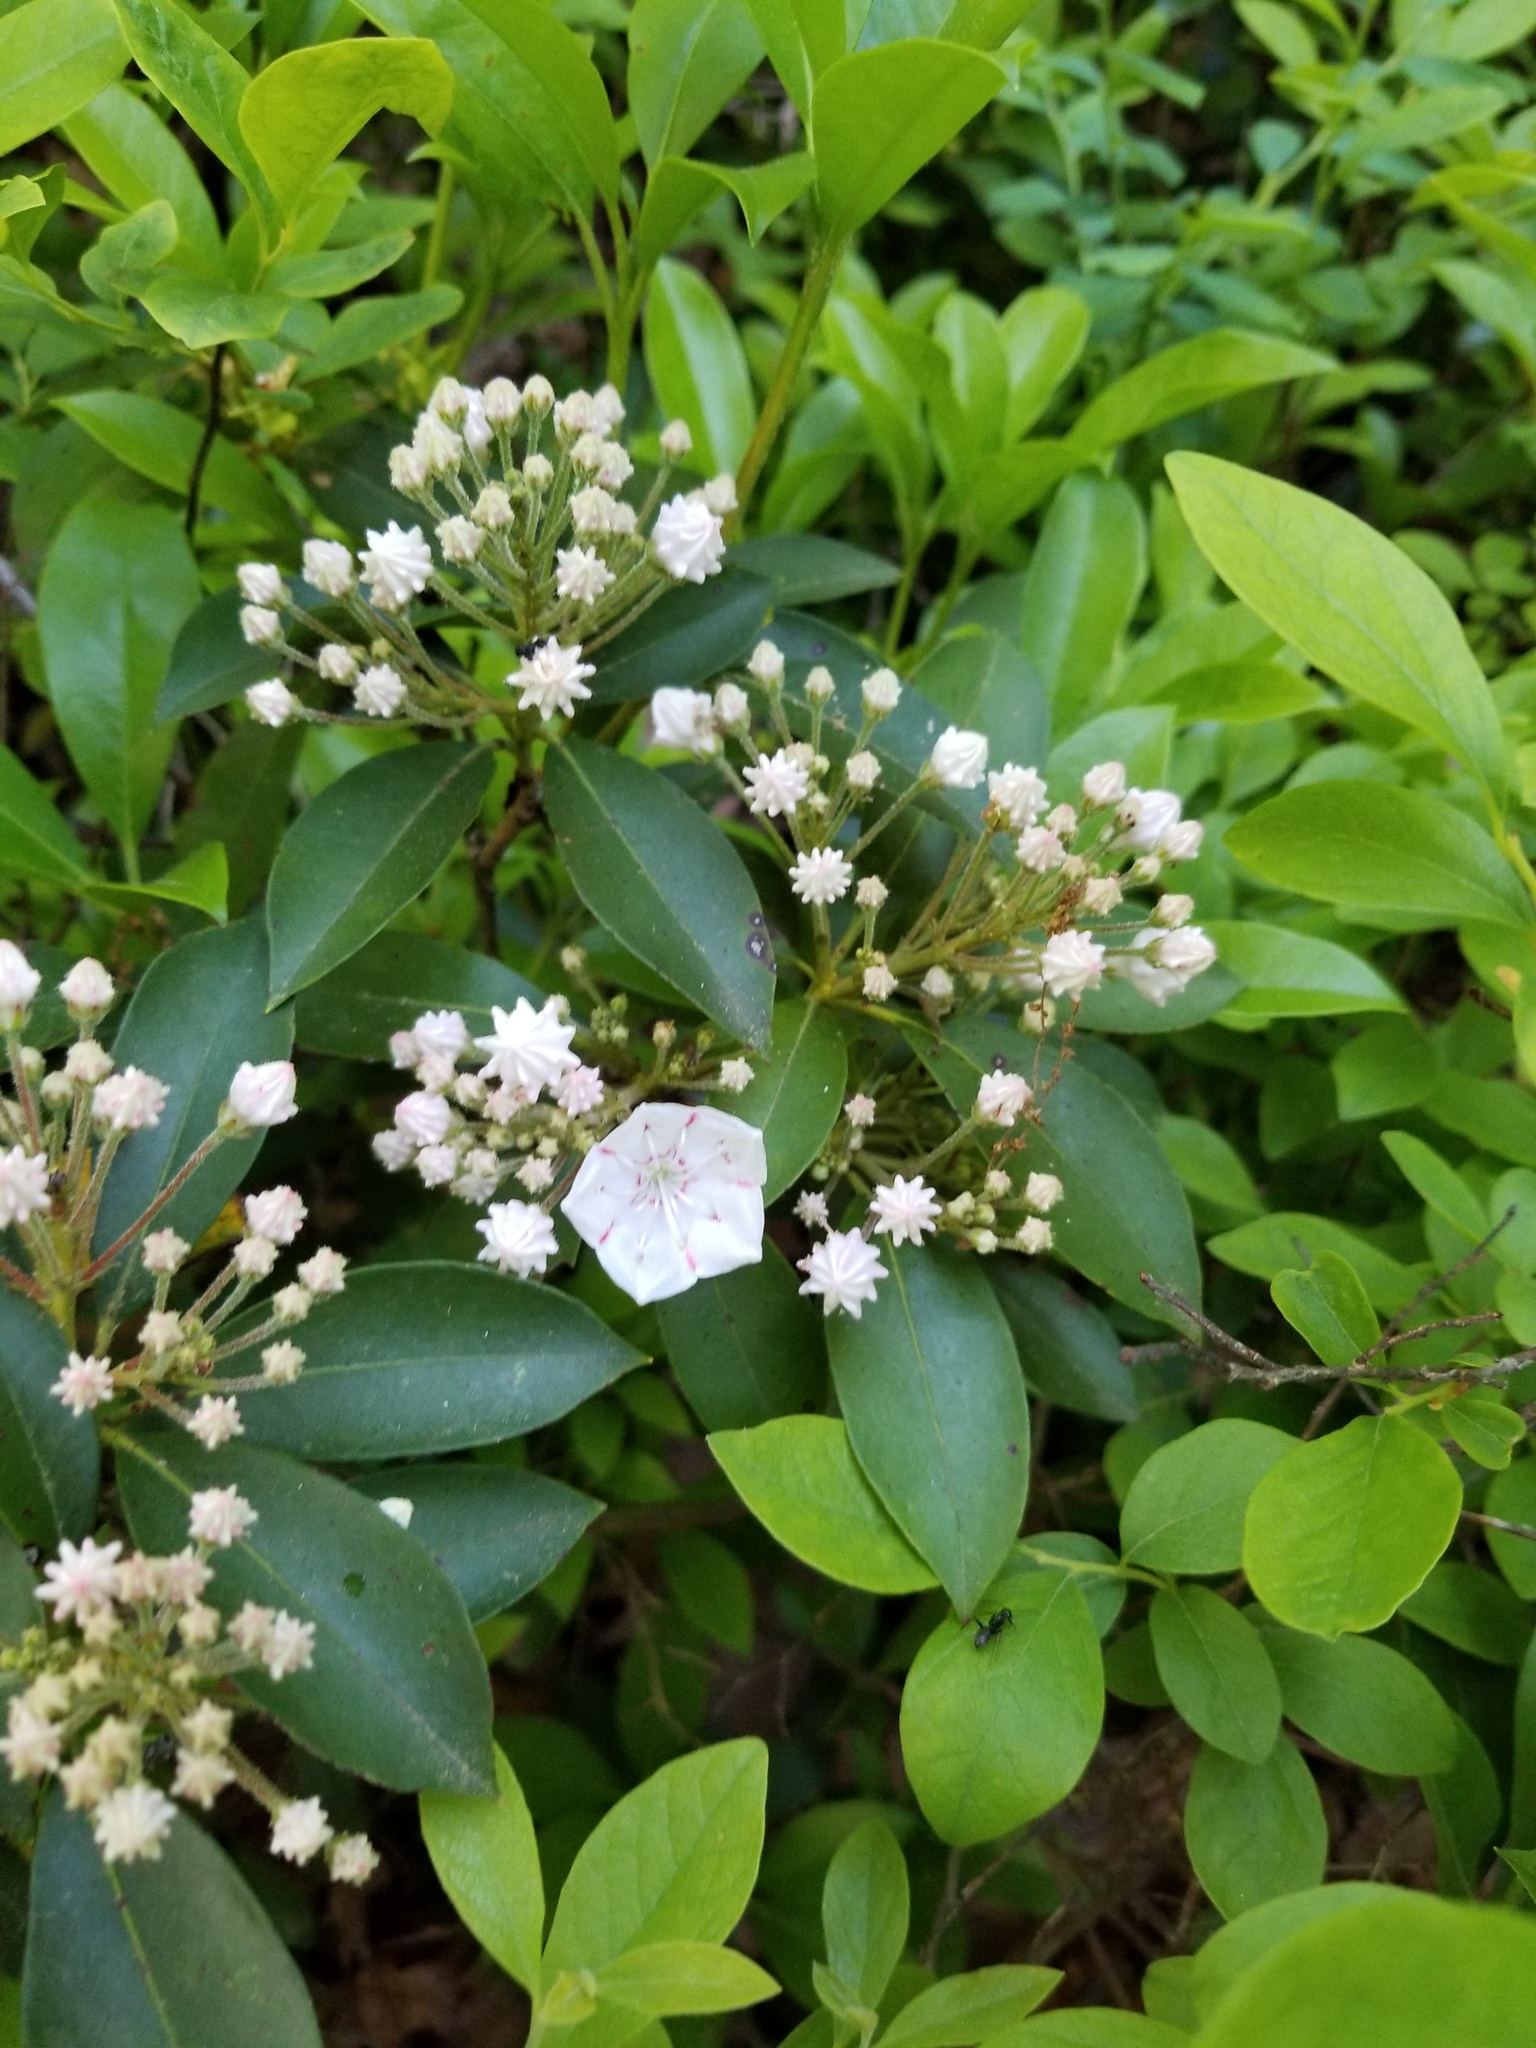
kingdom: Plantae
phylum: Tracheophyta
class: Magnoliopsida
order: Ericales
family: Ericaceae
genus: Kalmia
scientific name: Kalmia latifolia
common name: Mountain-laurel
